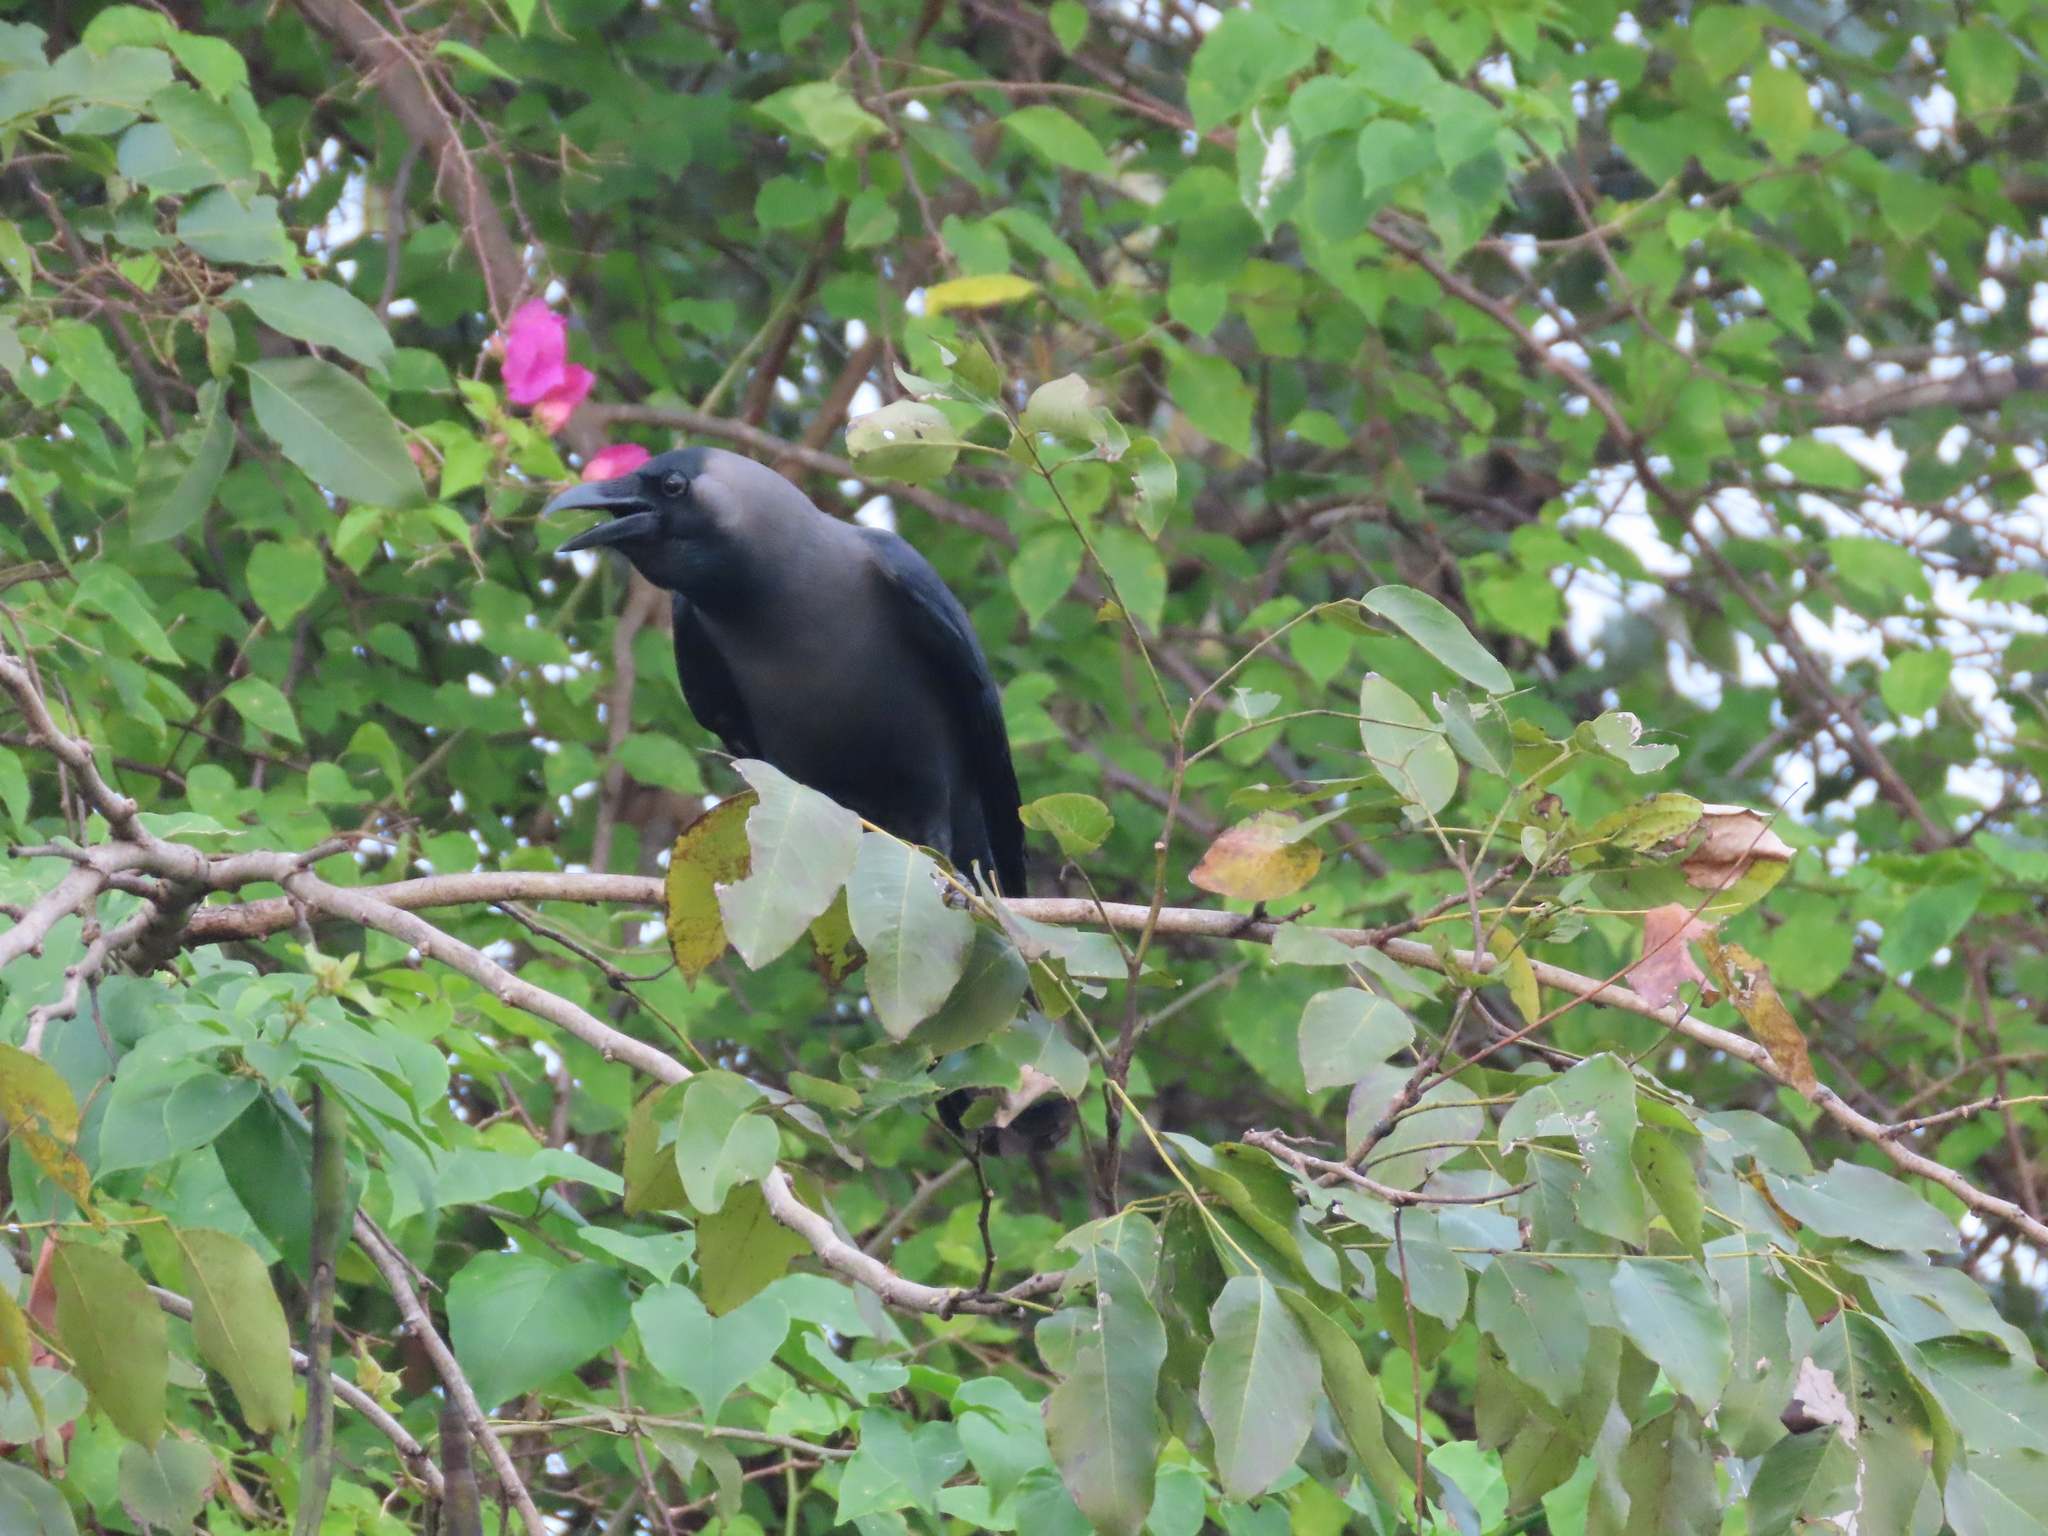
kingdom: Animalia
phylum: Chordata
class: Aves
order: Passeriformes
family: Corvidae
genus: Corvus
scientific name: Corvus splendens
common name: House crow
